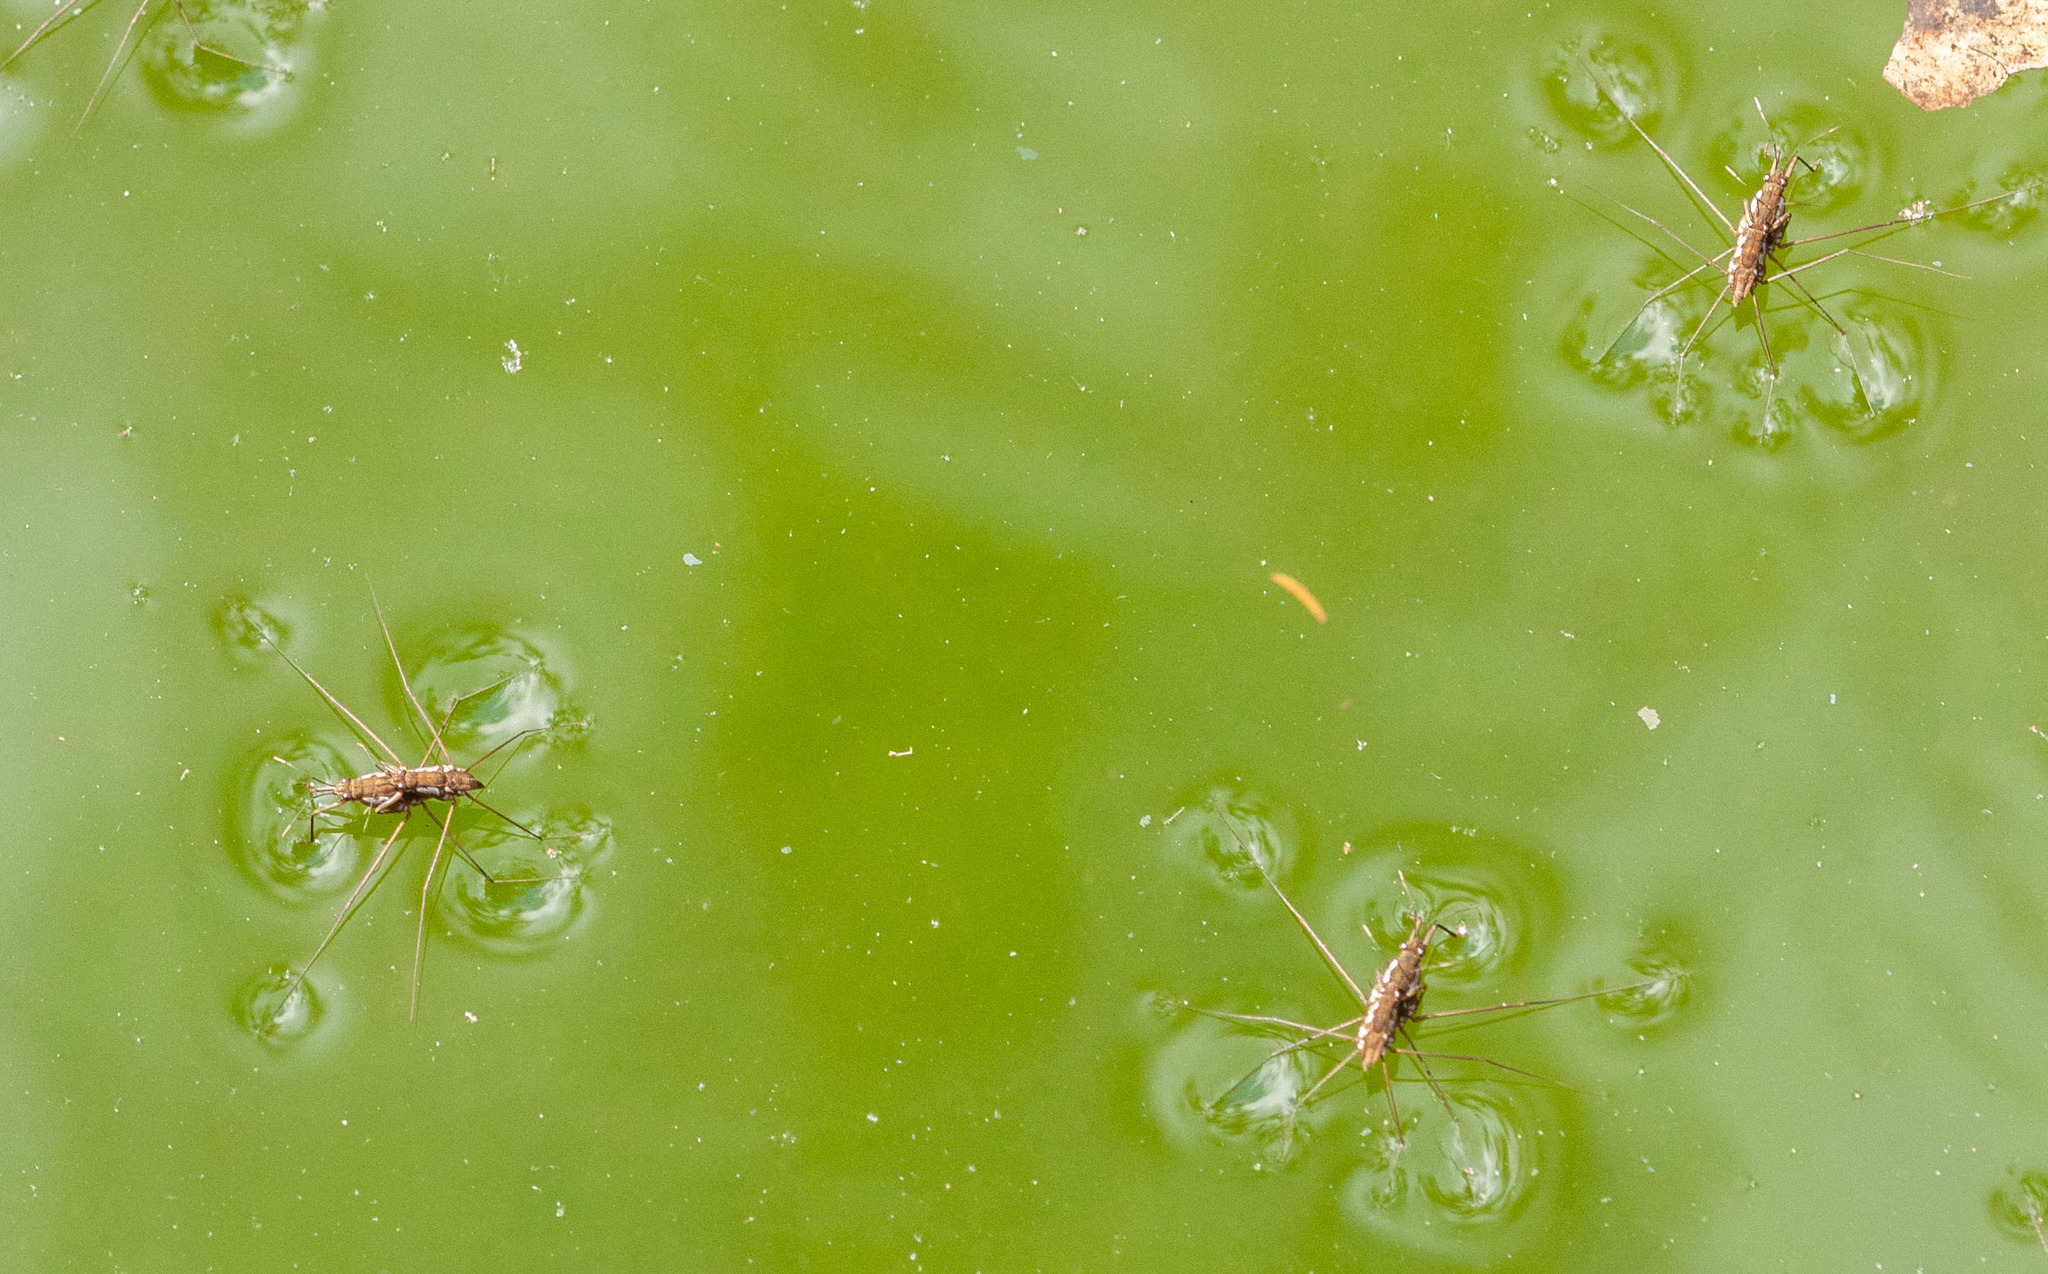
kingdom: Animalia
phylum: Arthropoda
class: Insecta
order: Hemiptera
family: Gerridae
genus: Tenagogerris
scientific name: Tenagogerris euphrosyne
